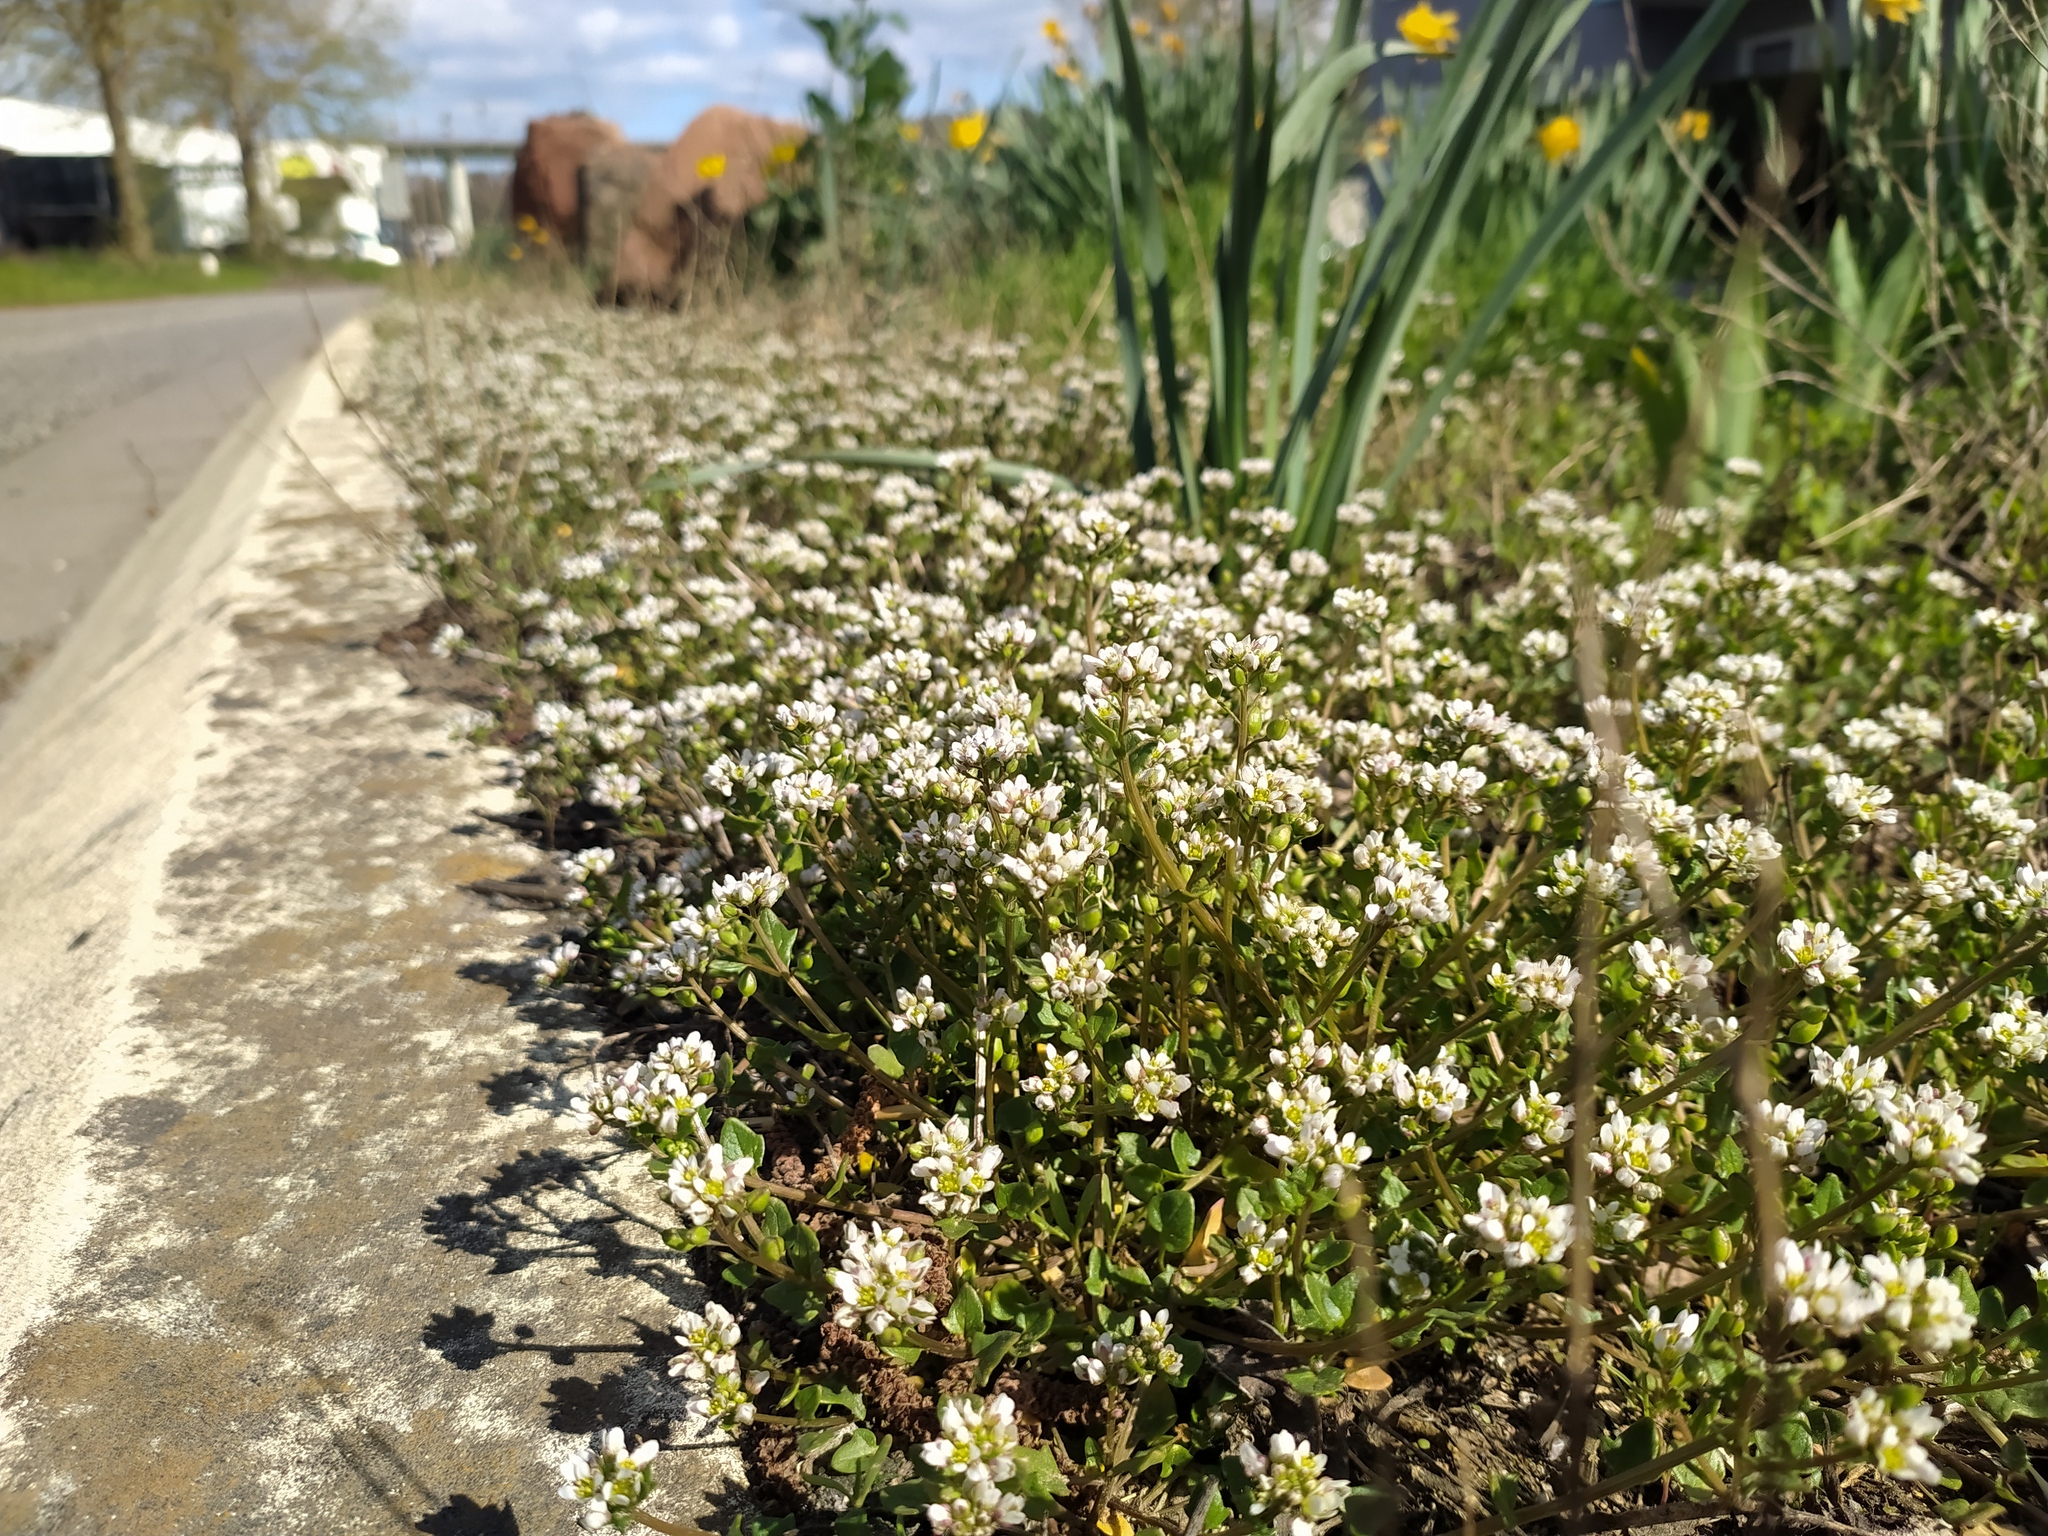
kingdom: Plantae
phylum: Tracheophyta
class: Magnoliopsida
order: Brassicales
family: Brassicaceae
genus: Cochlearia
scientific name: Cochlearia danica
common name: Early scurvygrass
